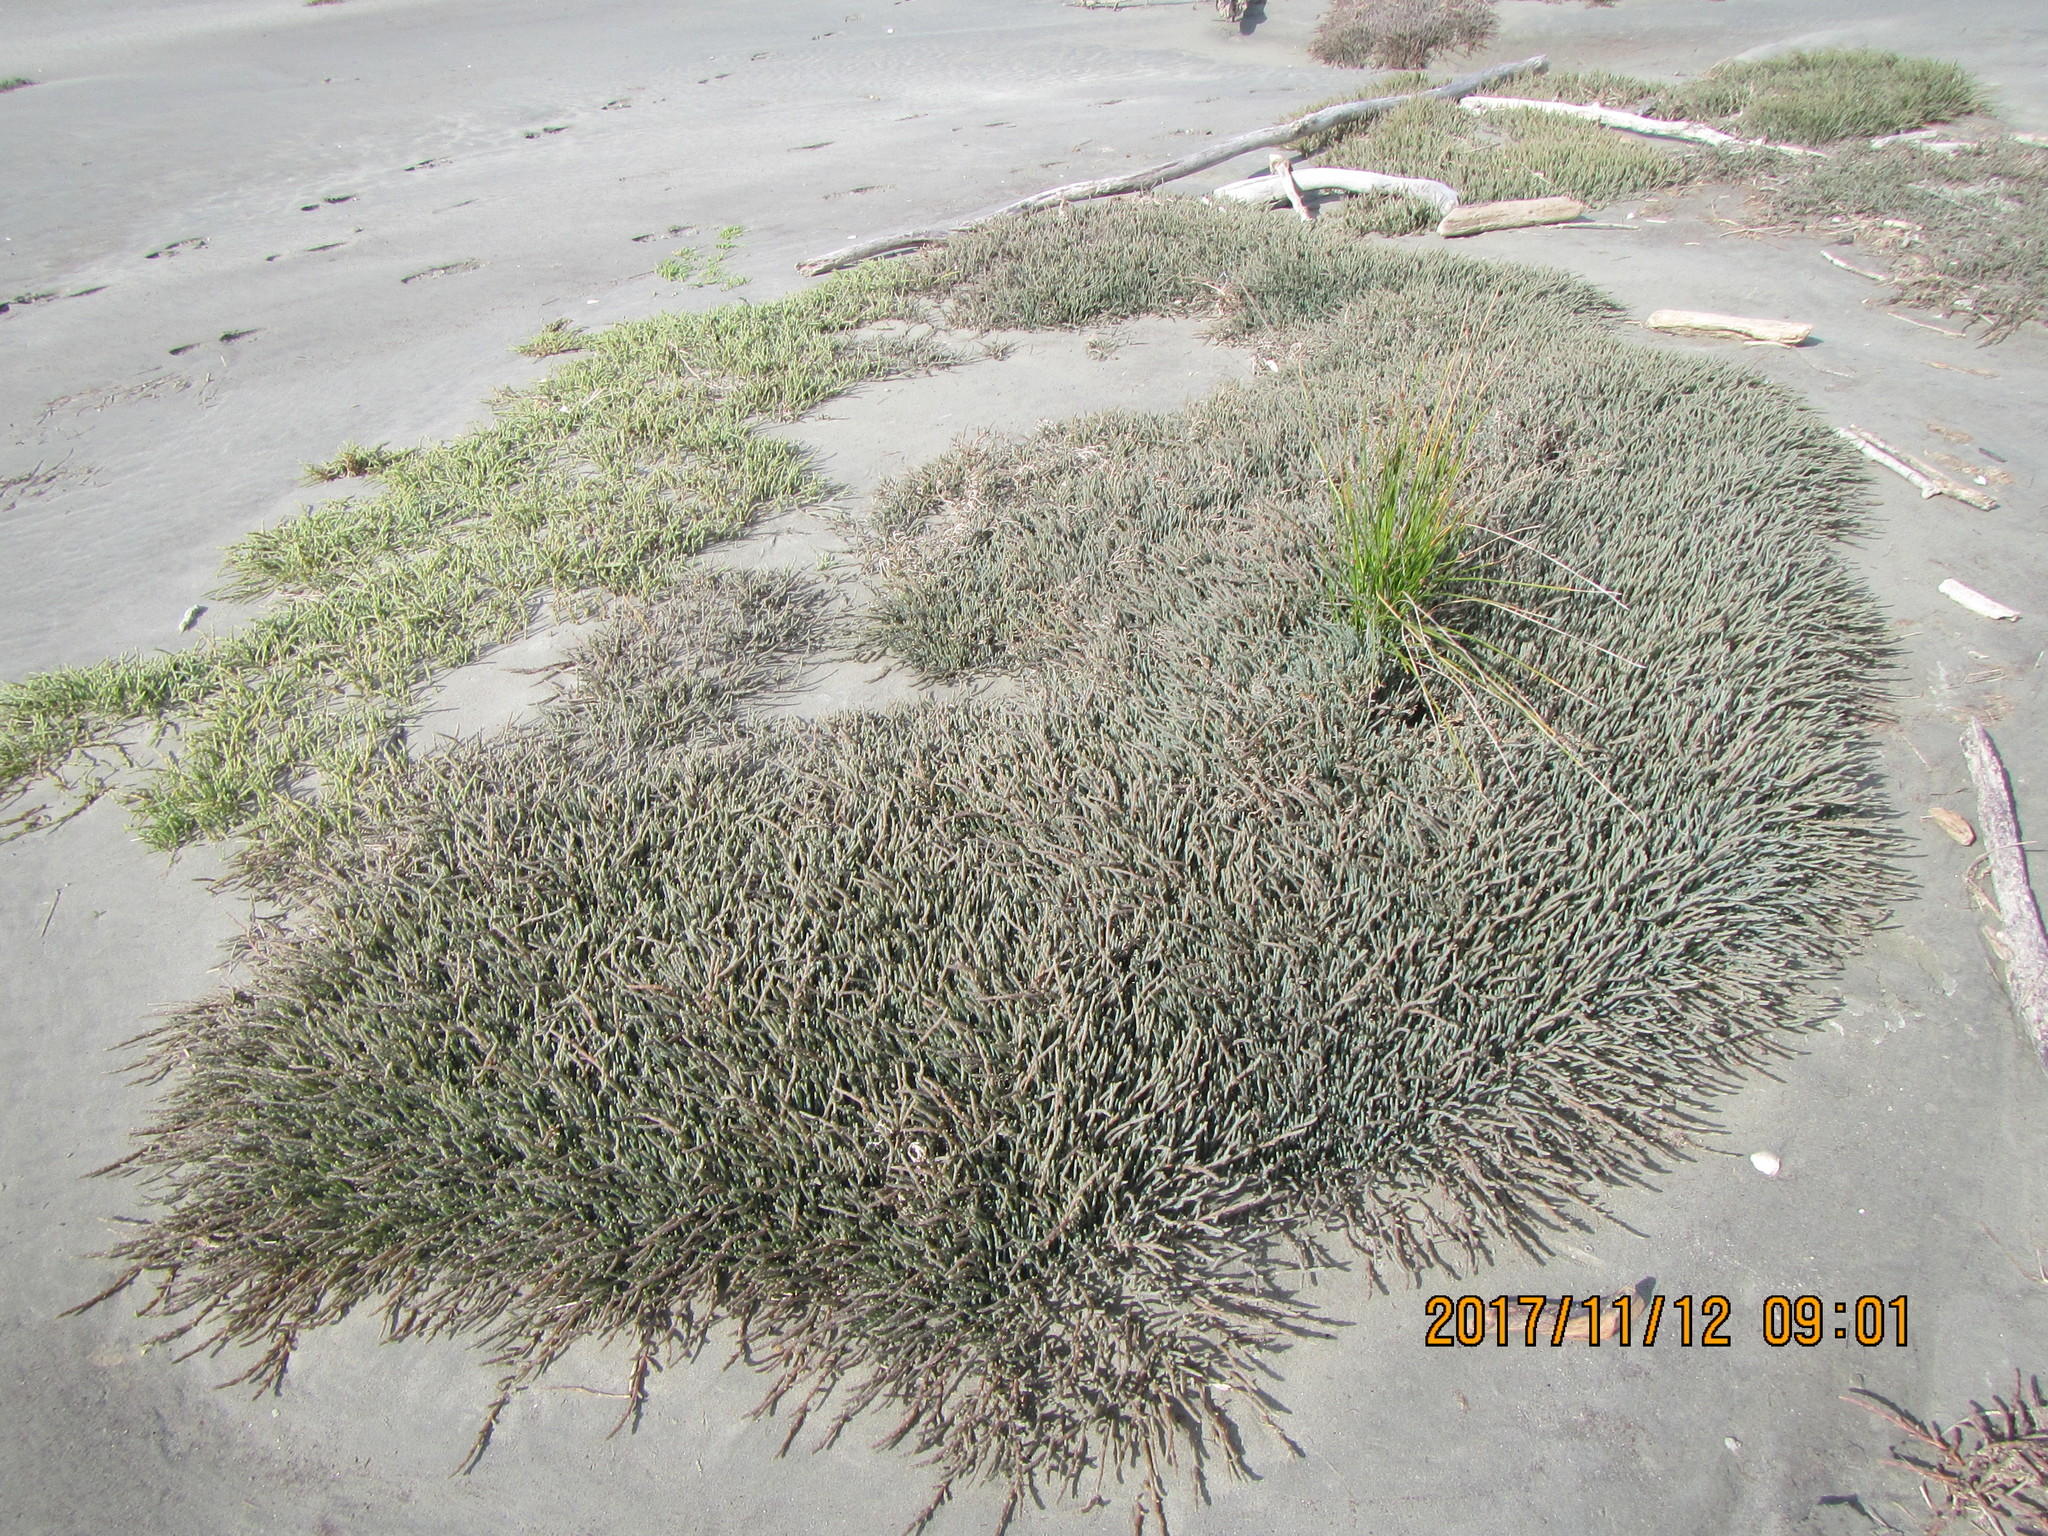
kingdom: Plantae
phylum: Tracheophyta
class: Magnoliopsida
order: Caryophyllales
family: Amaranthaceae
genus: Salicornia
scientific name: Salicornia quinqueflora
